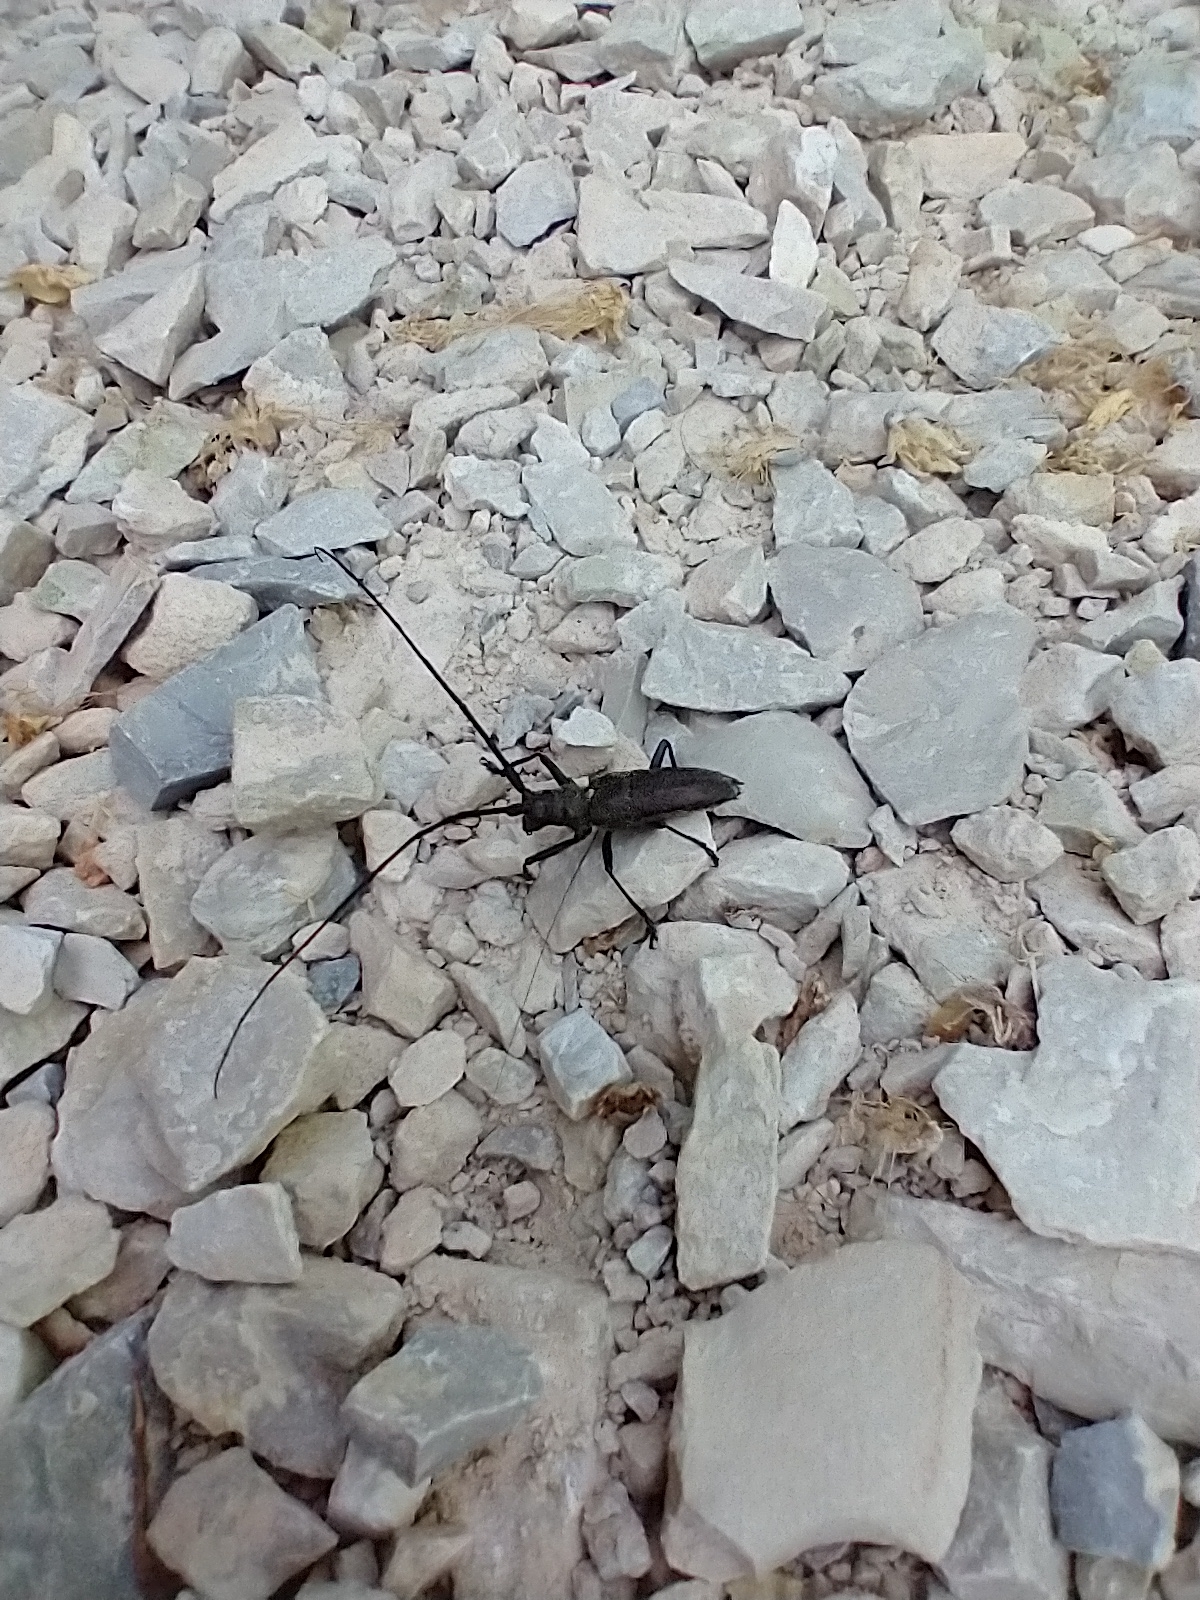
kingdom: Animalia
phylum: Arthropoda
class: Insecta
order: Coleoptera
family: Cerambycidae
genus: Monochamus
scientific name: Monochamus scutellatus
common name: White-spotted sawyer beetle
